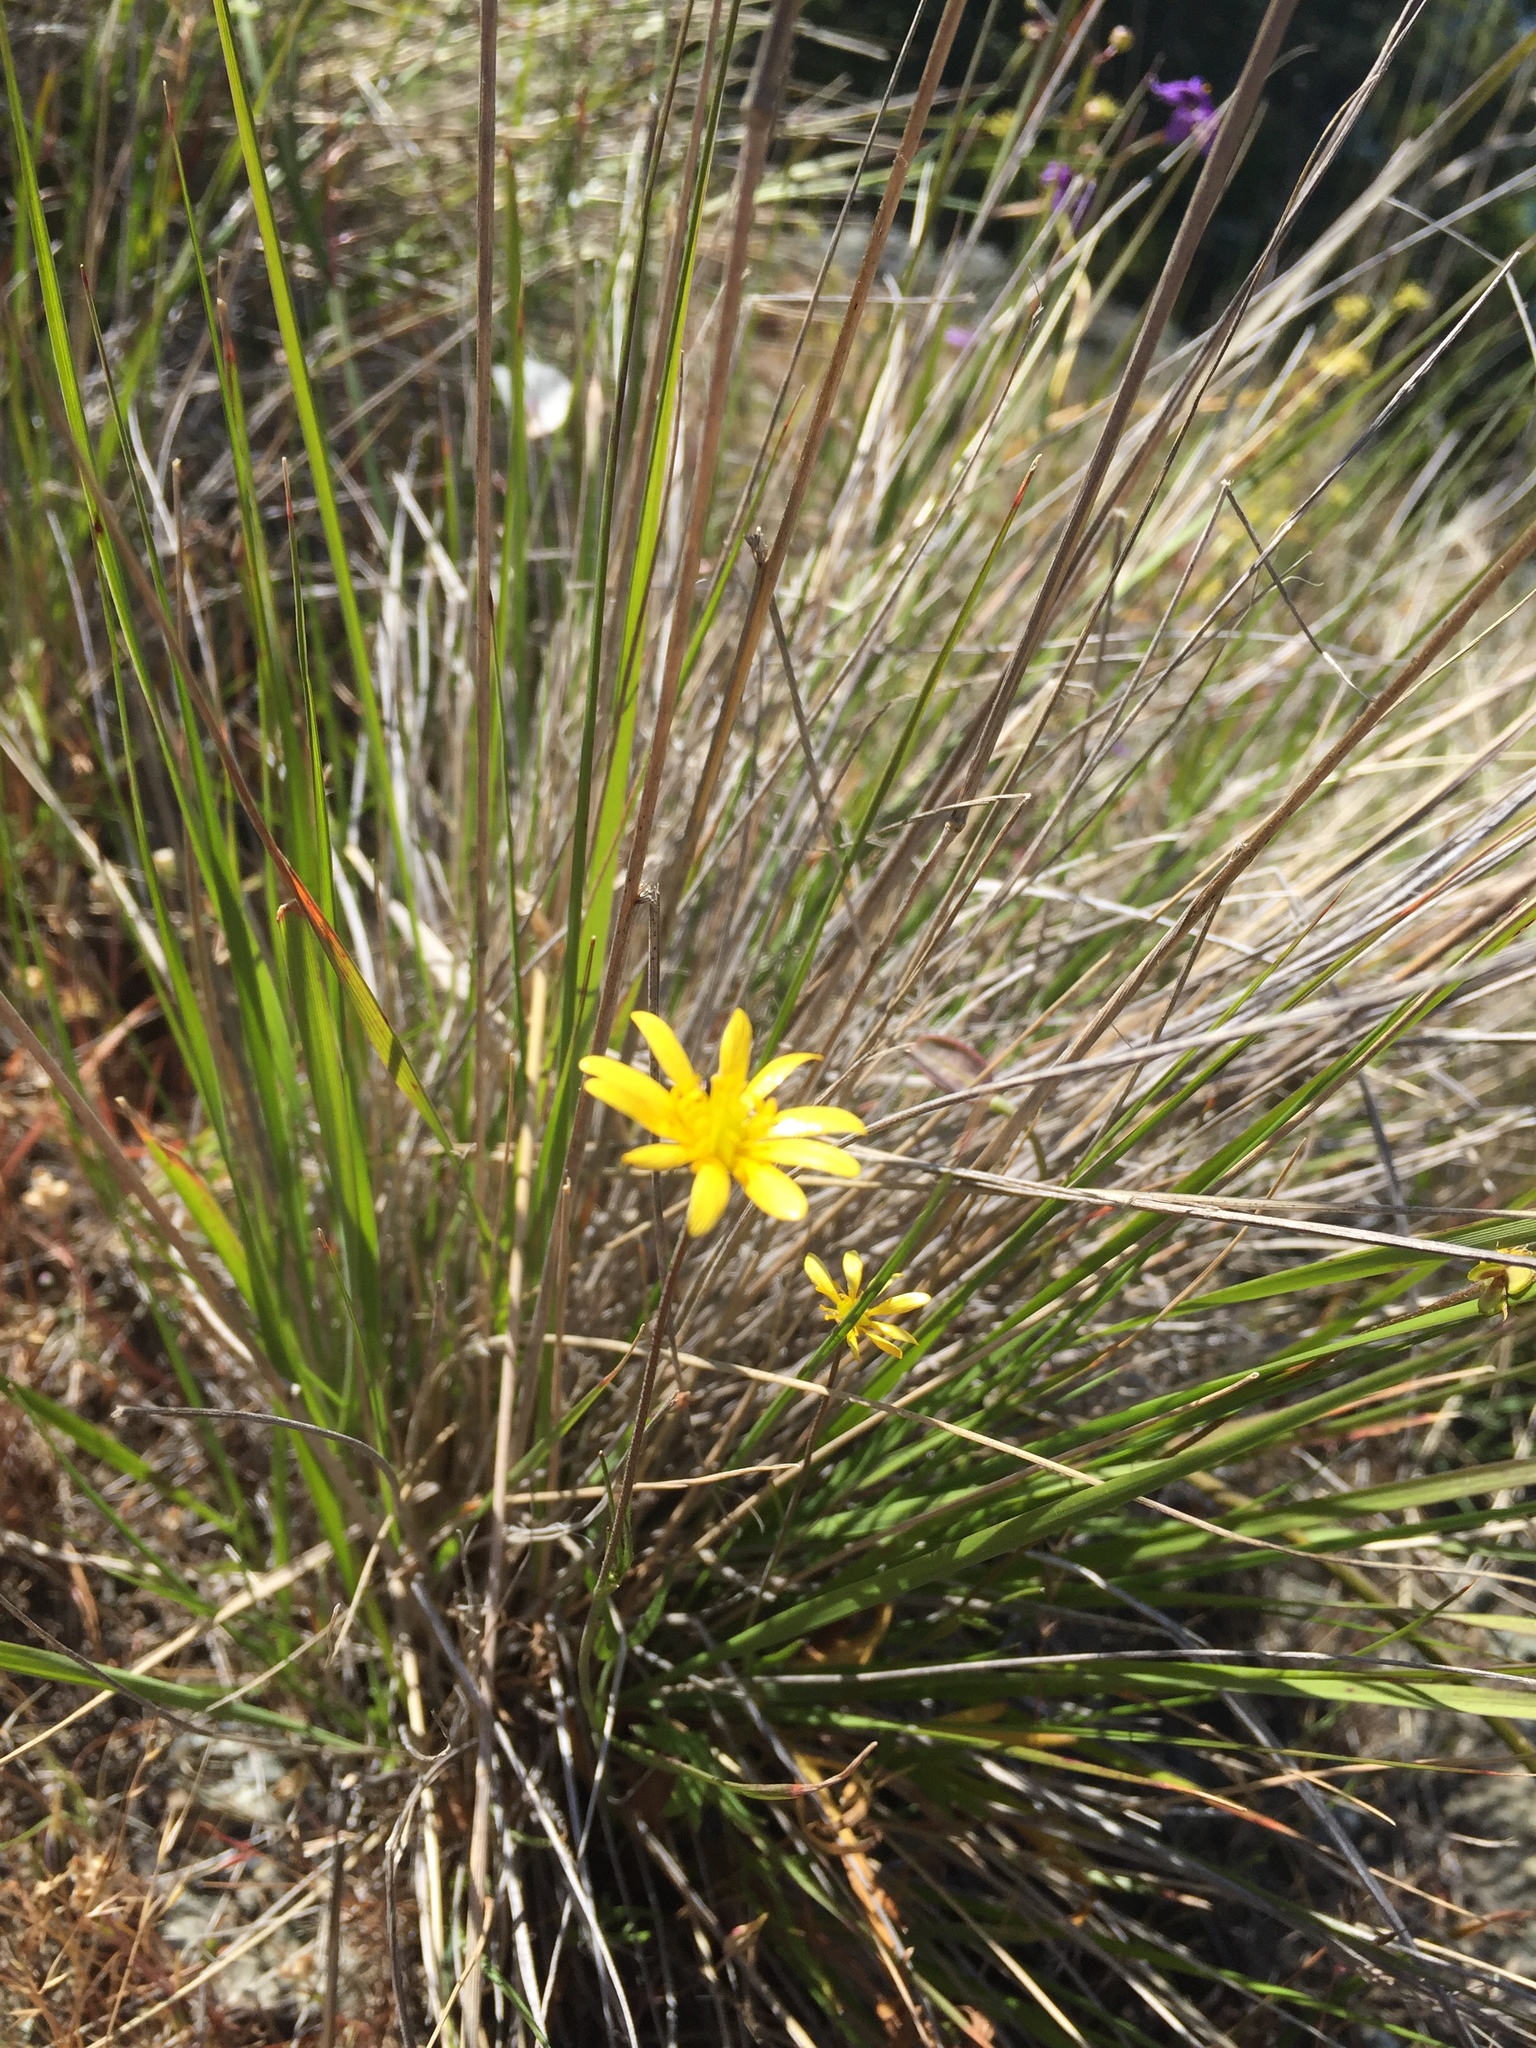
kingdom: Plantae
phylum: Tracheophyta
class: Magnoliopsida
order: Ranunculales
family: Ranunculaceae
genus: Ranunculus
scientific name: Ranunculus californicus
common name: California buttercup
